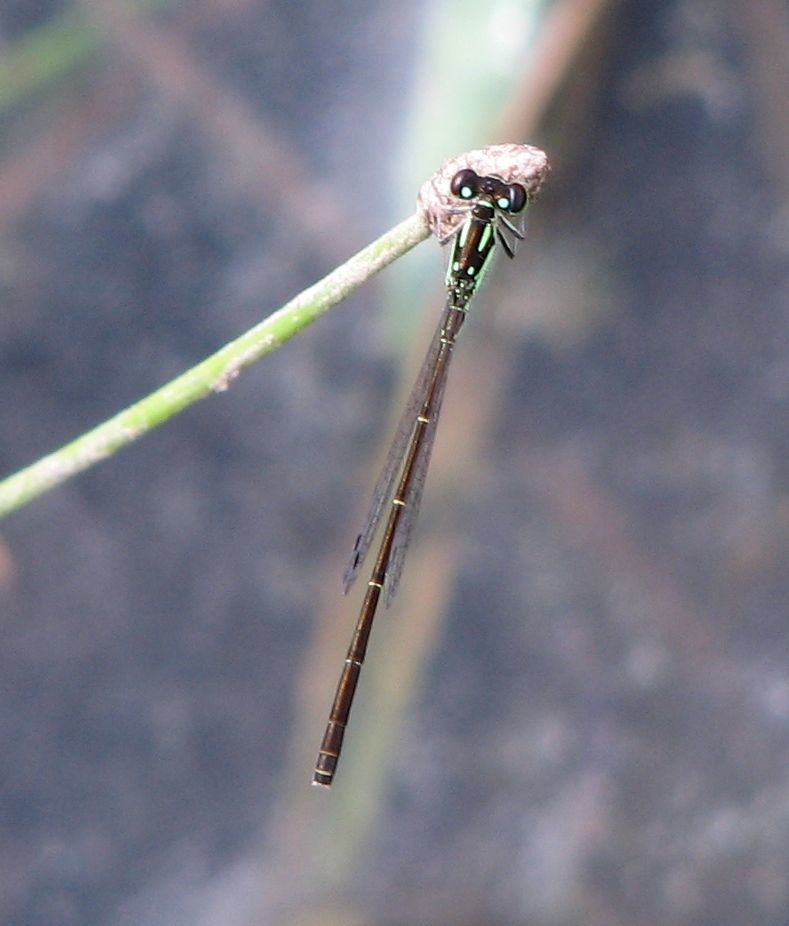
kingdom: Animalia
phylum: Arthropoda
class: Insecta
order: Odonata
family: Coenagrionidae
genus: Ischnura
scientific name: Ischnura posita
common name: Fragile forktail
